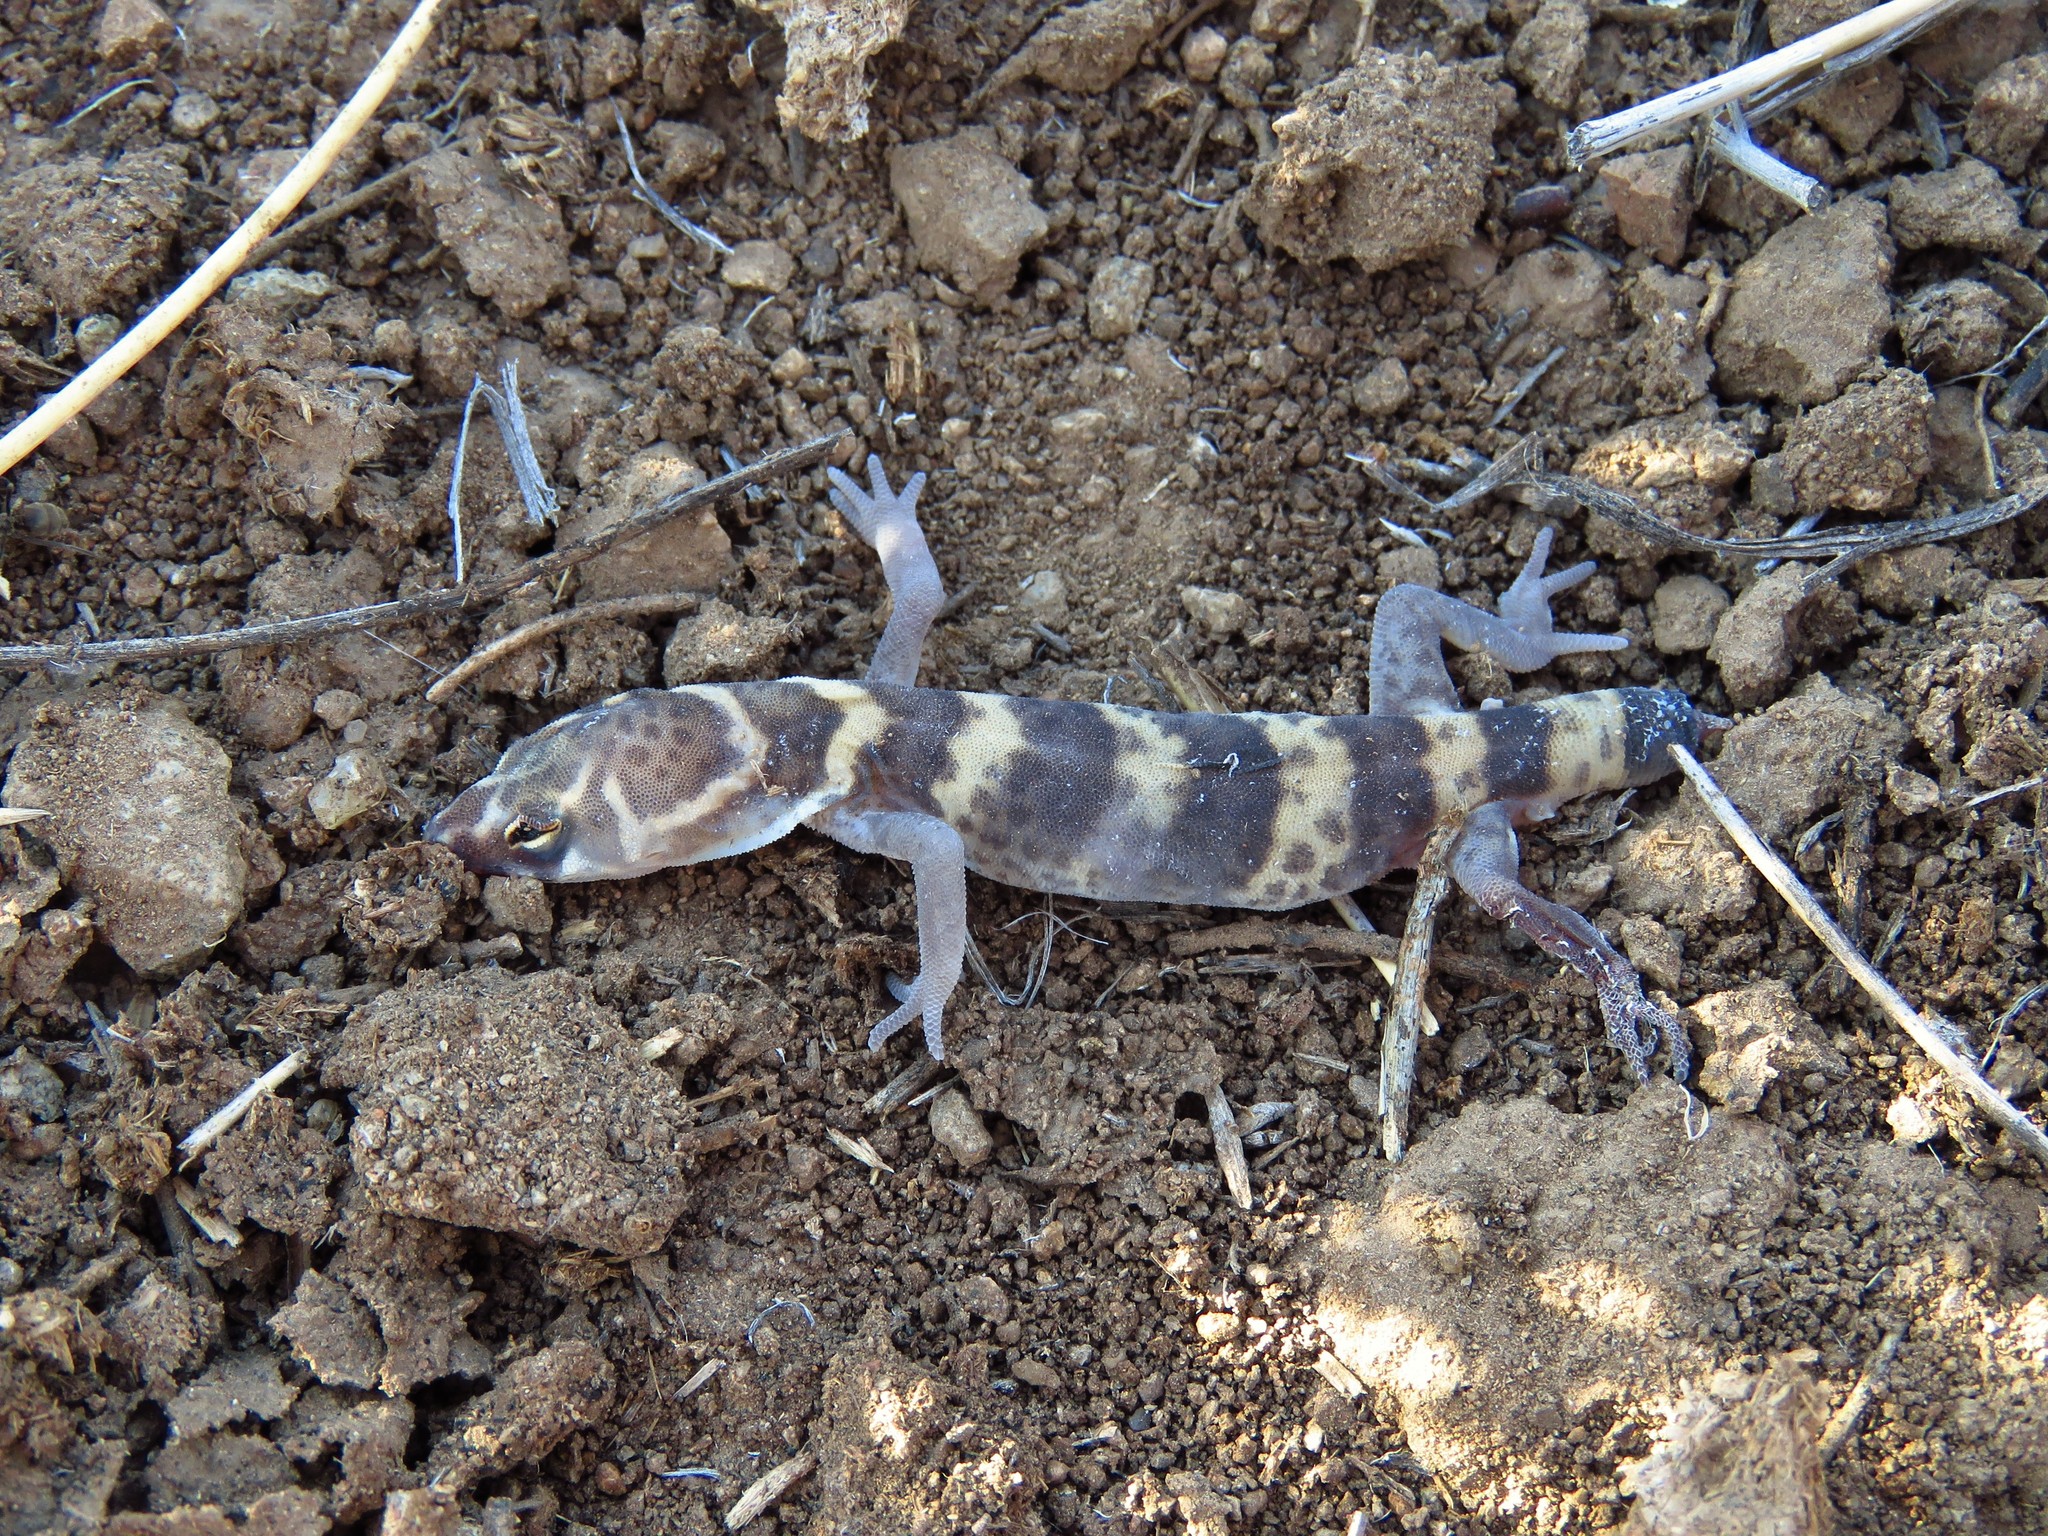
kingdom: Animalia
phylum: Chordata
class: Squamata
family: Eublepharidae
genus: Coleonyx
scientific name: Coleonyx brevis
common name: Texas banded gecko
